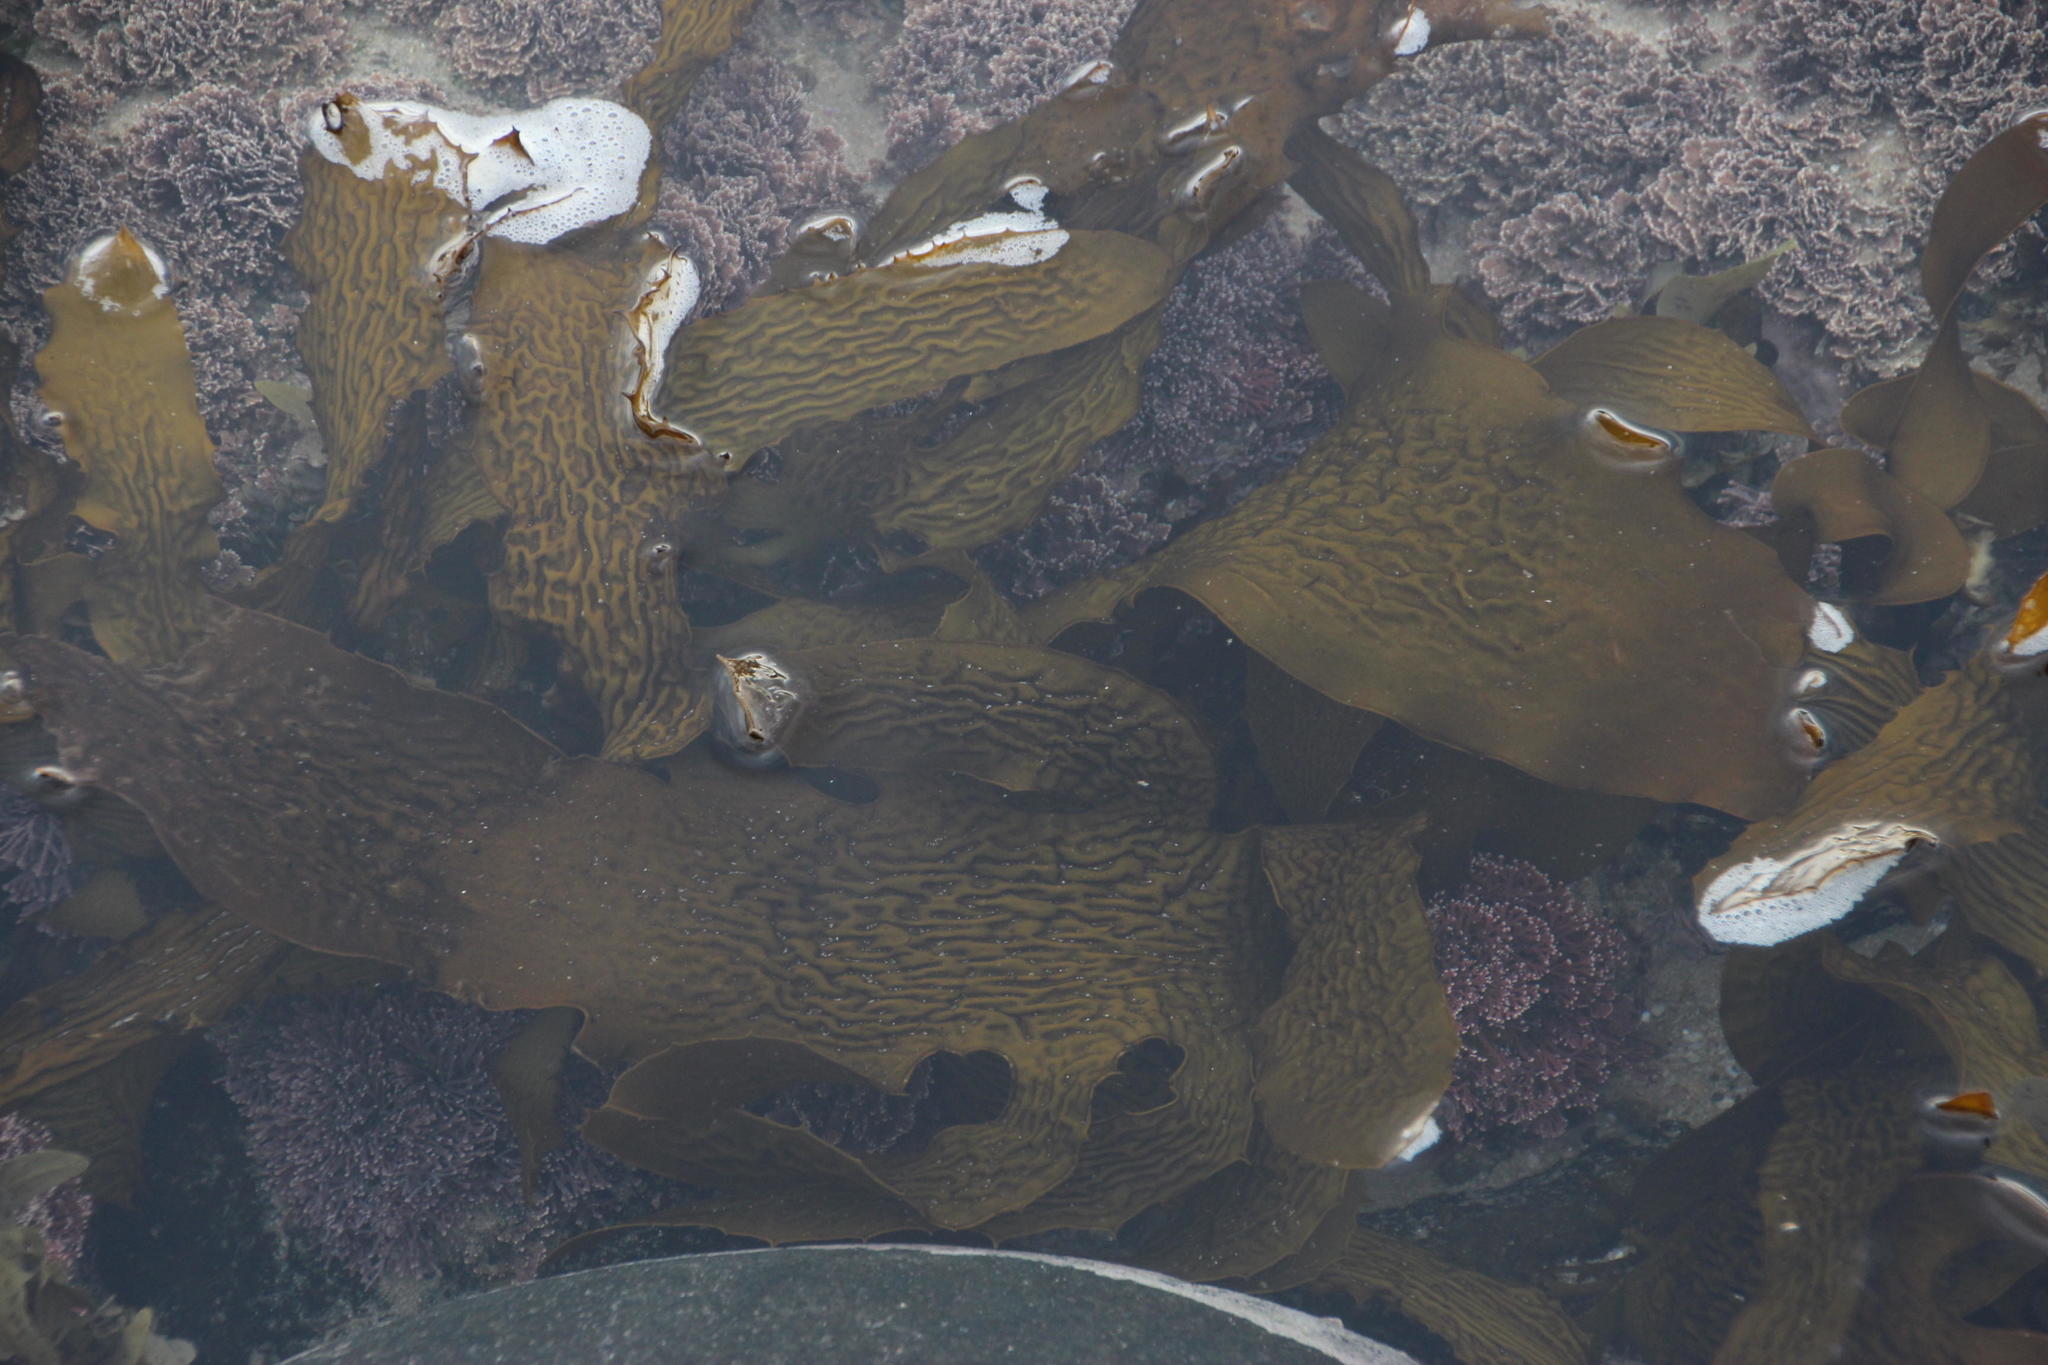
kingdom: Chromista
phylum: Ochrophyta
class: Phaeophyceae
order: Laminariales
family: Lessoniaceae
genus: Ecklonia
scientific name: Ecklonia radiata
